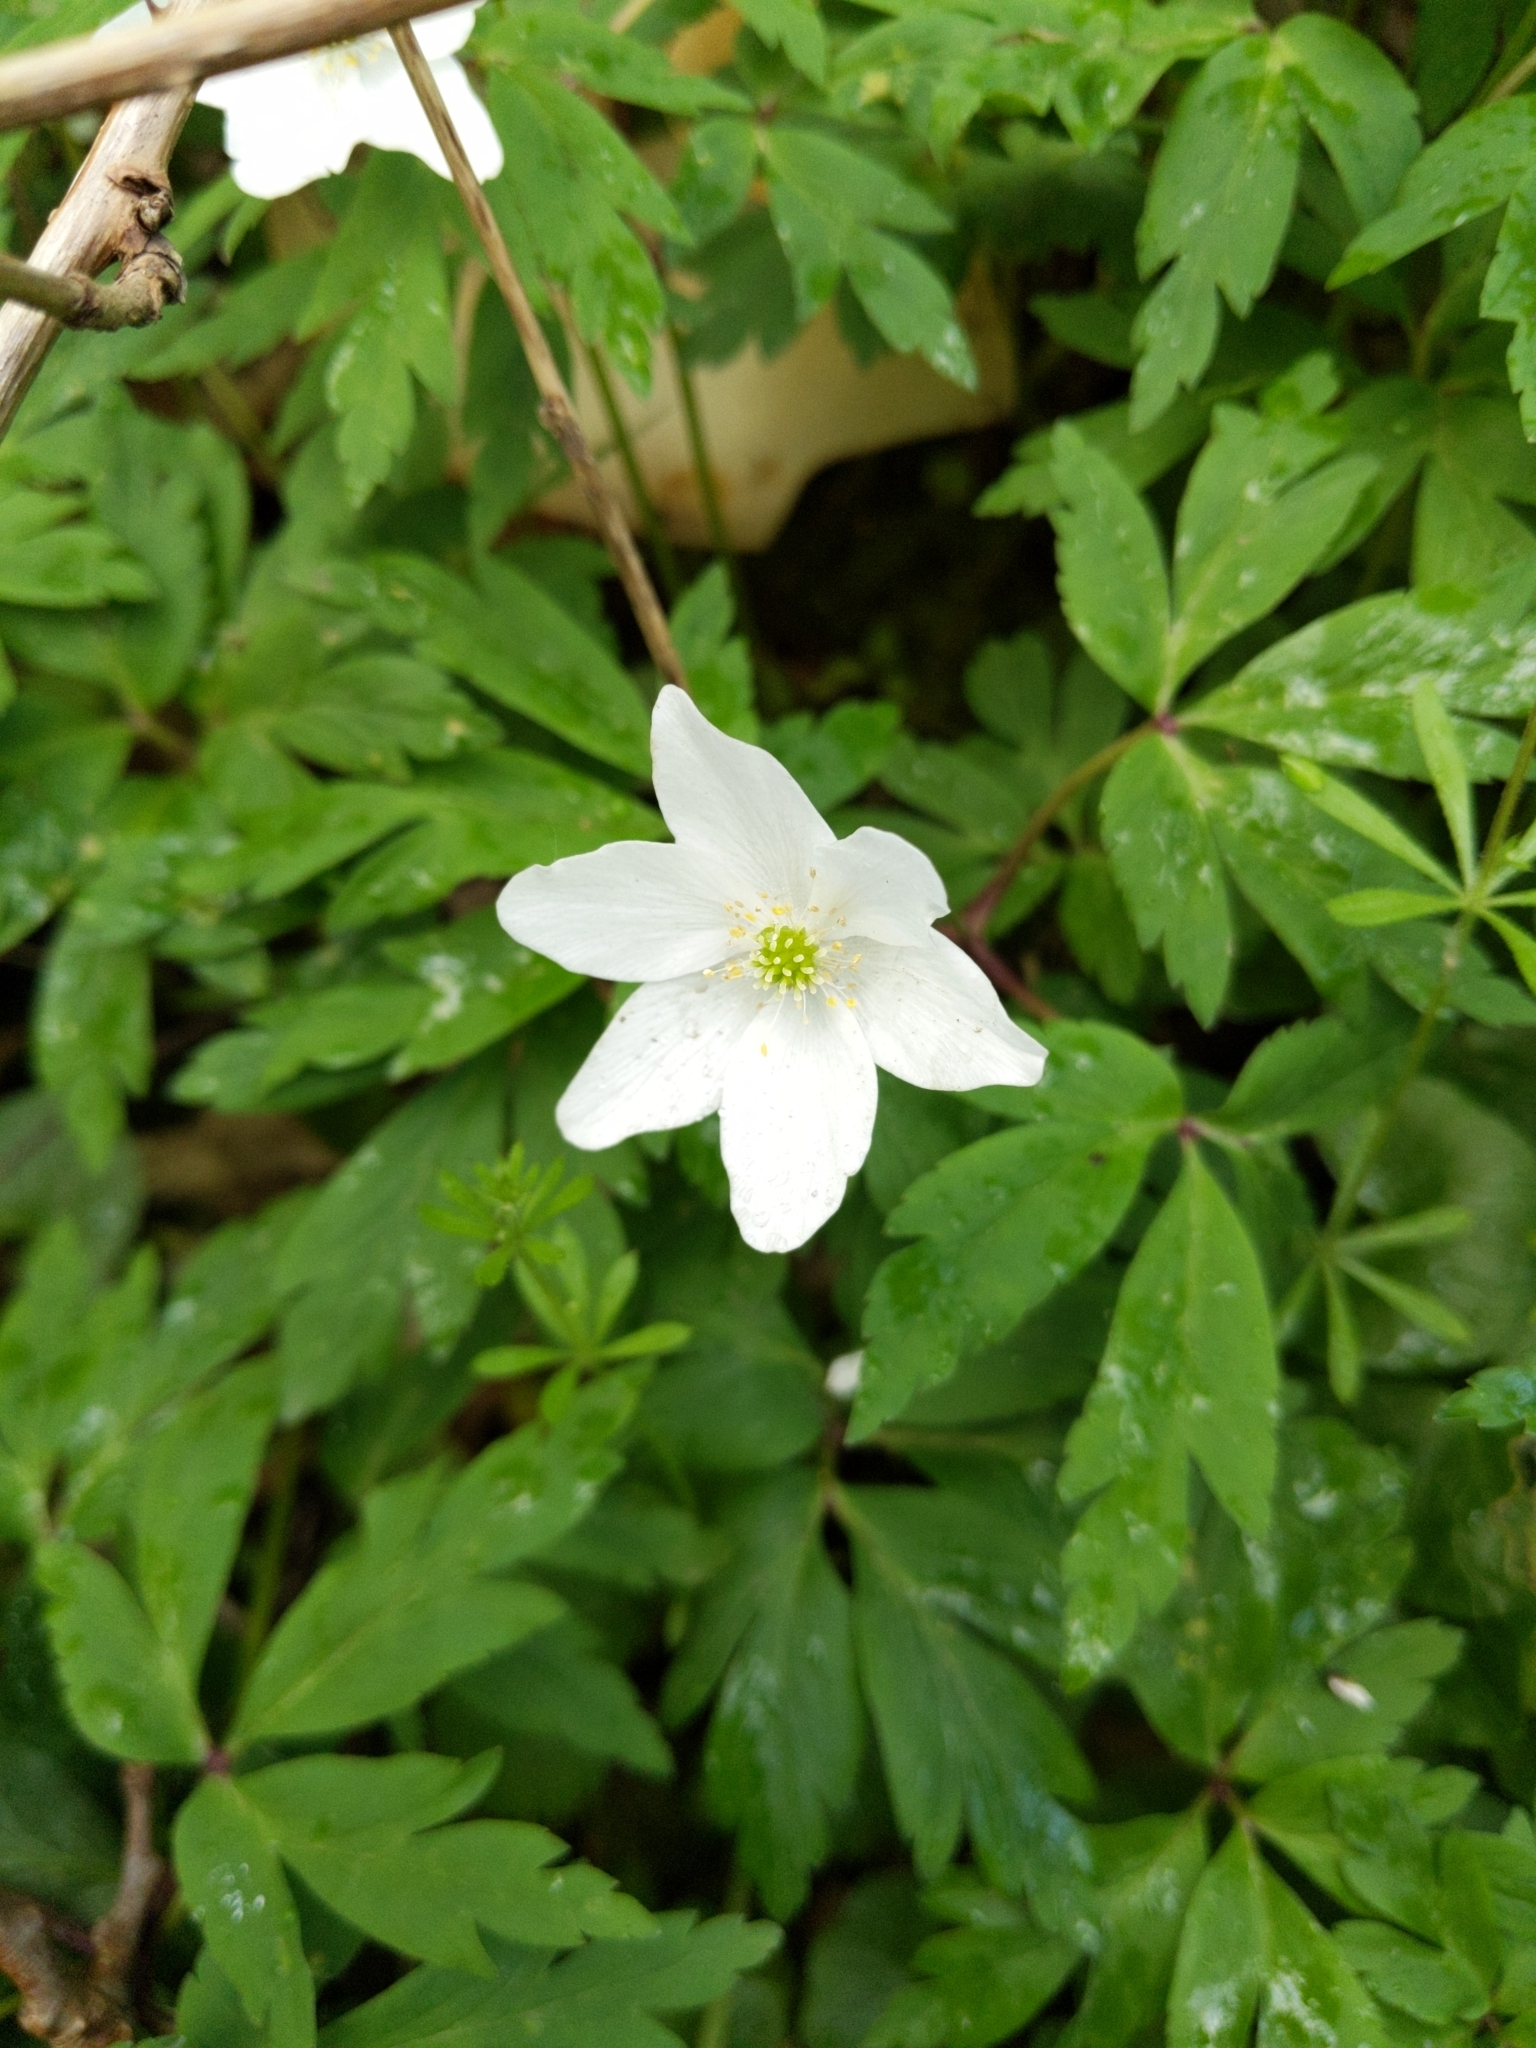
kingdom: Plantae
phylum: Tracheophyta
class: Magnoliopsida
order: Ranunculales
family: Ranunculaceae
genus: Anemone
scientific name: Anemone nemorosa
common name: Wood anemone
